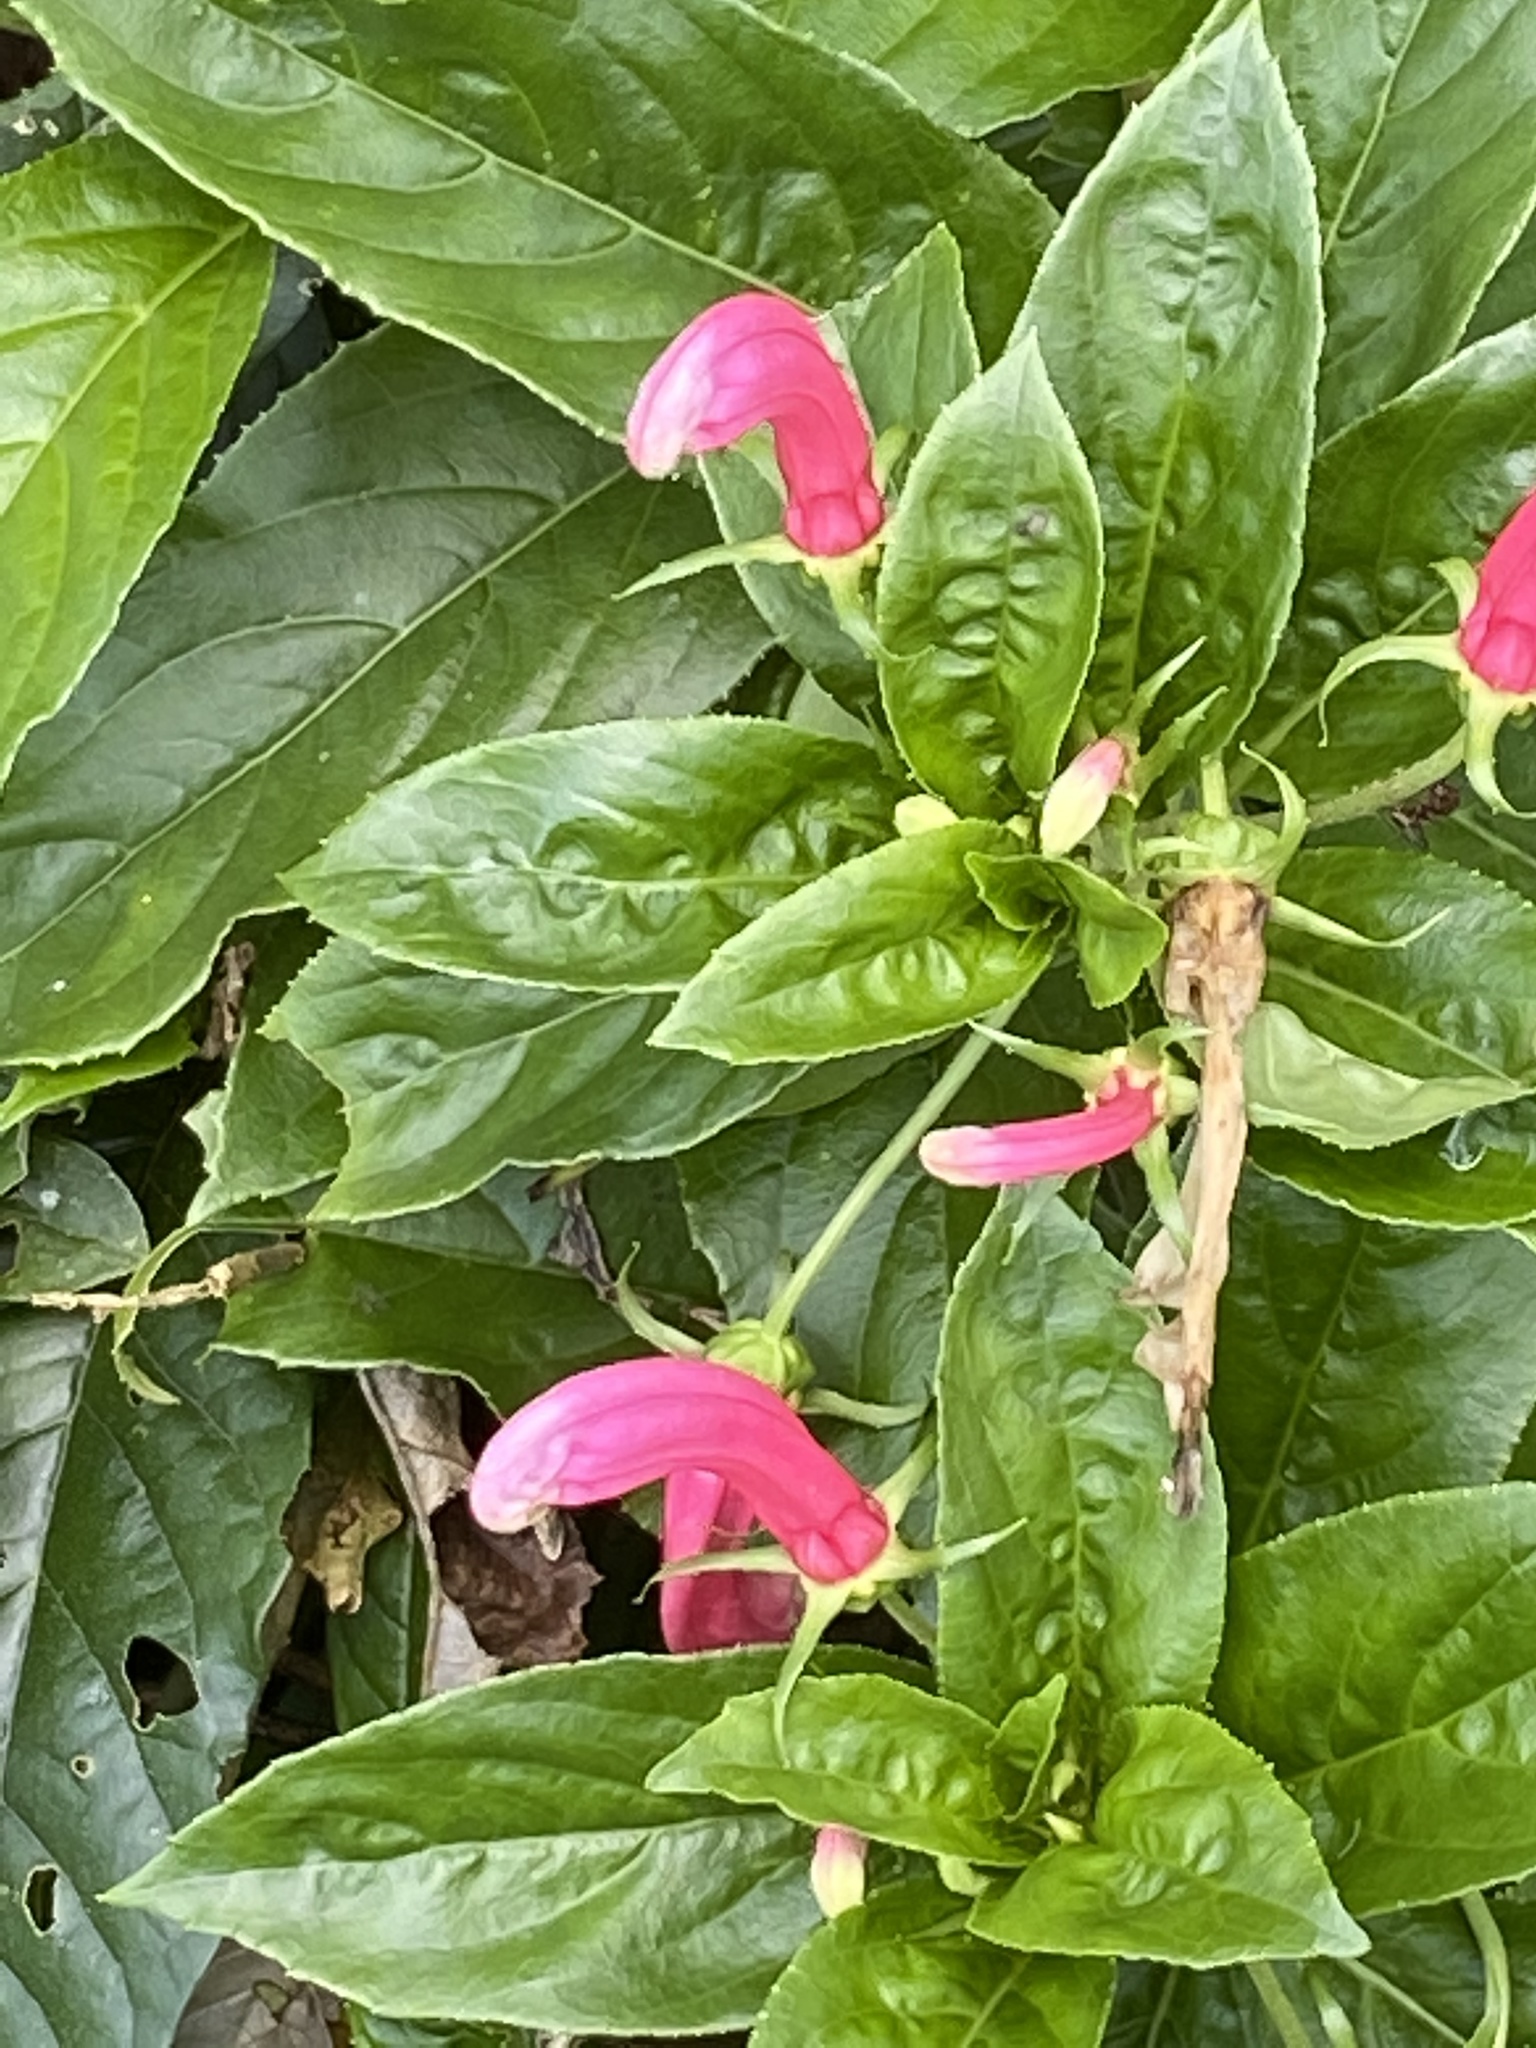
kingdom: Plantae
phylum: Tracheophyta
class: Magnoliopsida
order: Asterales
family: Campanulaceae
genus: Centropogon
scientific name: Centropogon cornutus
